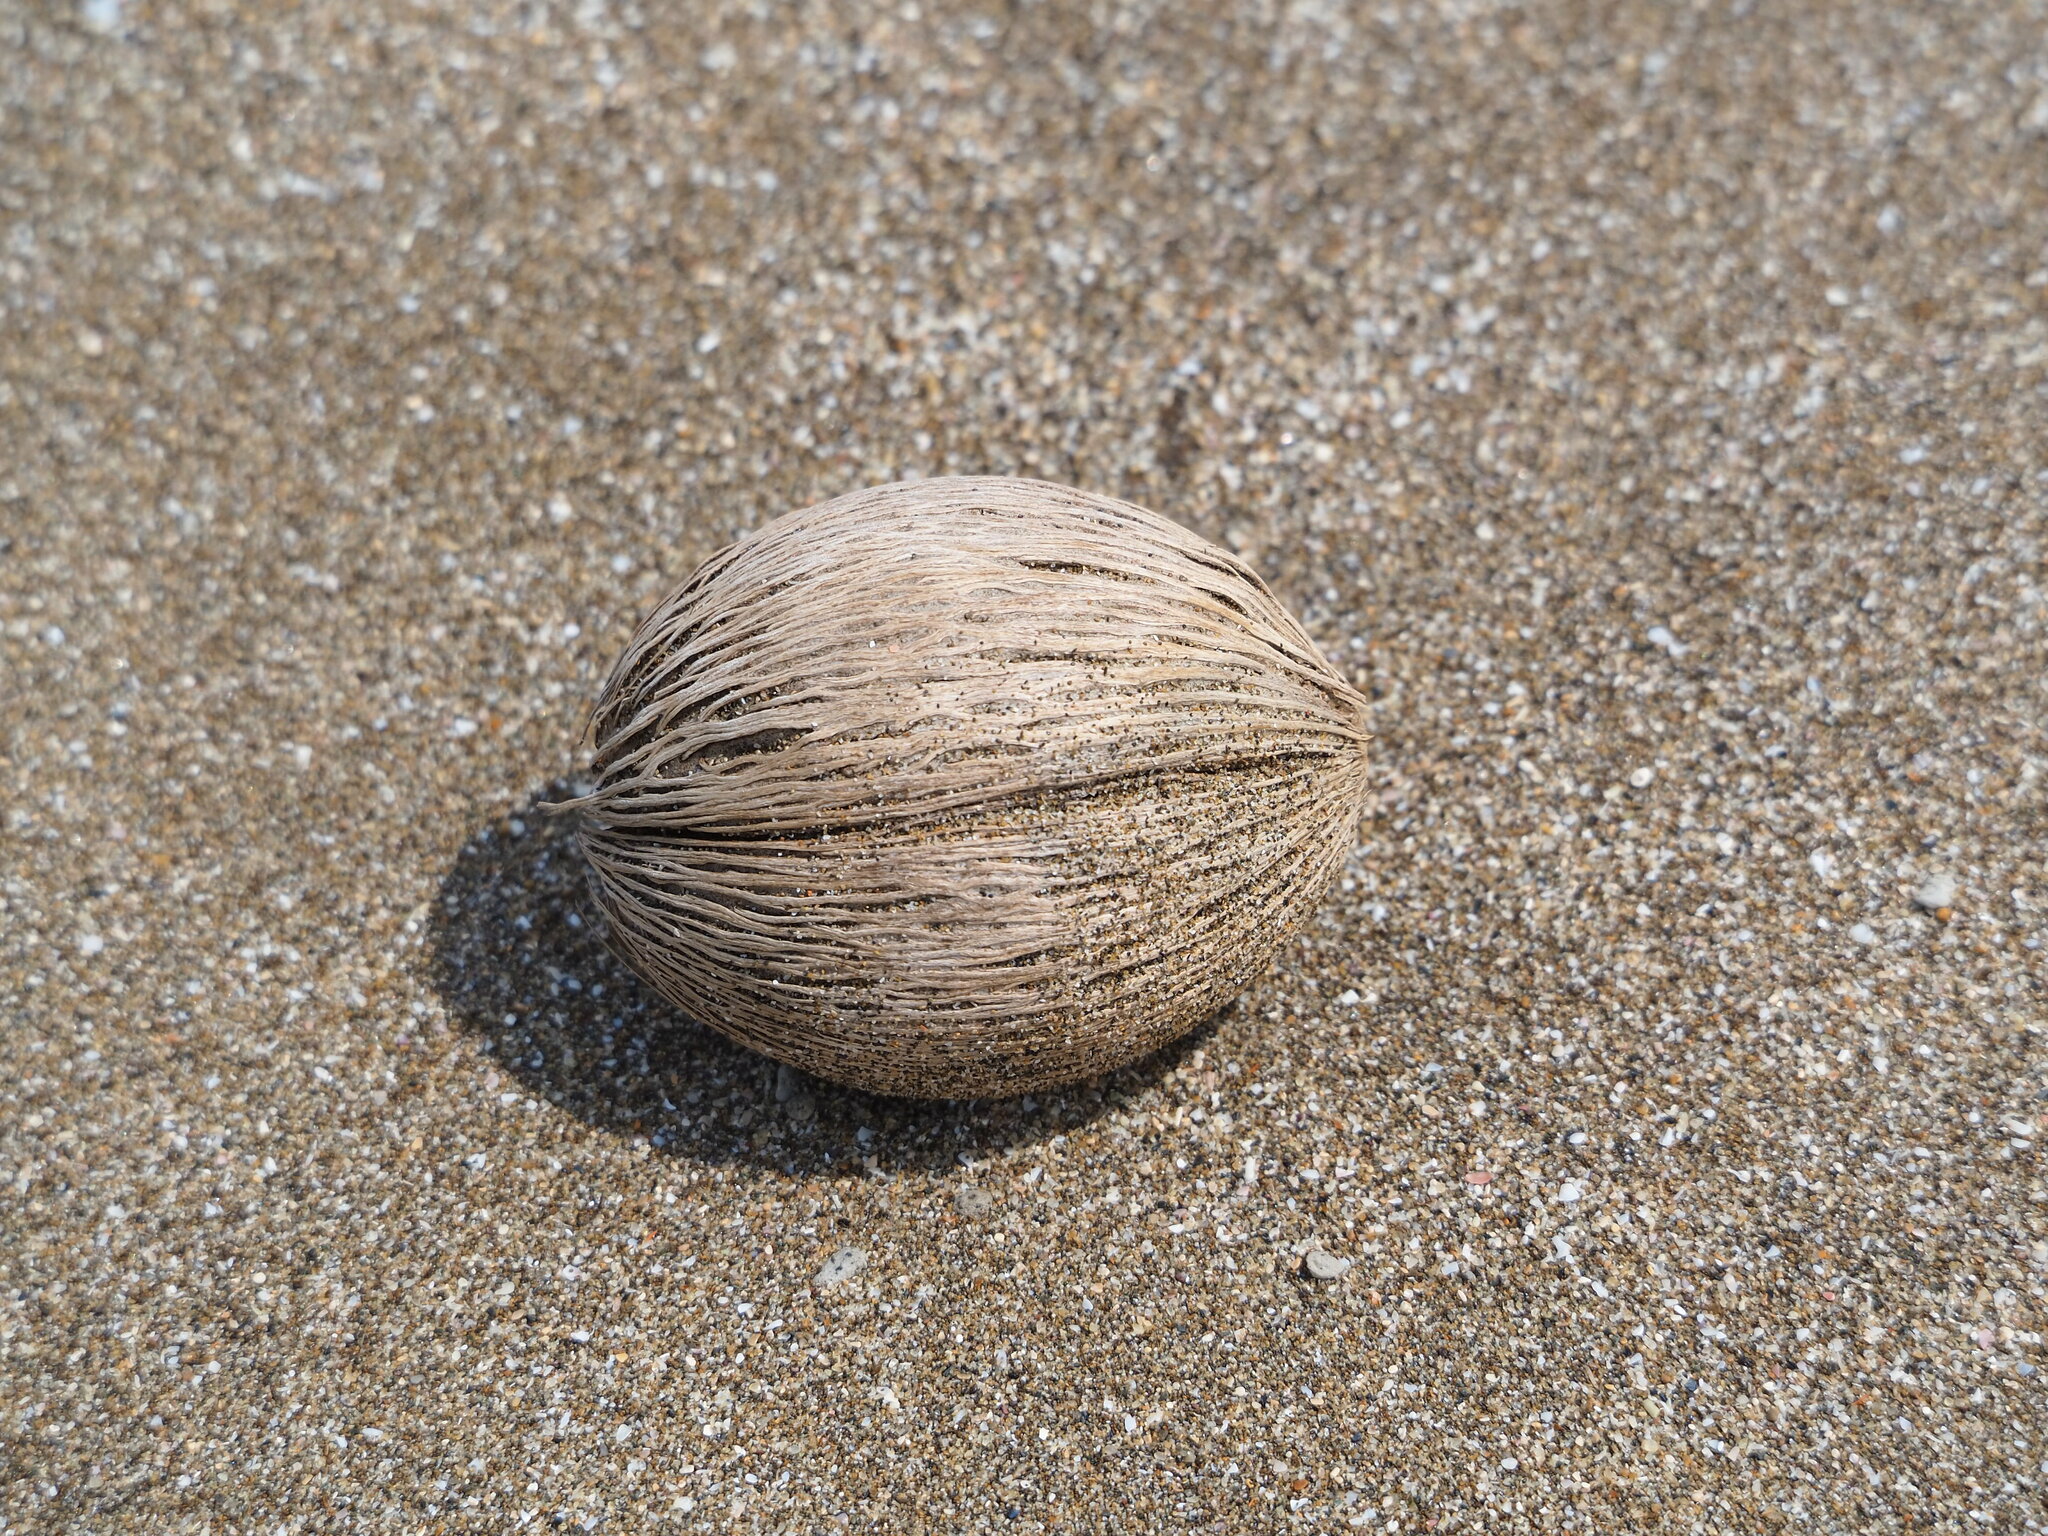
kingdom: Plantae
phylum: Tracheophyta
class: Magnoliopsida
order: Gentianales
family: Apocynaceae
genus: Cerbera
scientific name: Cerbera manghas
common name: Reva
